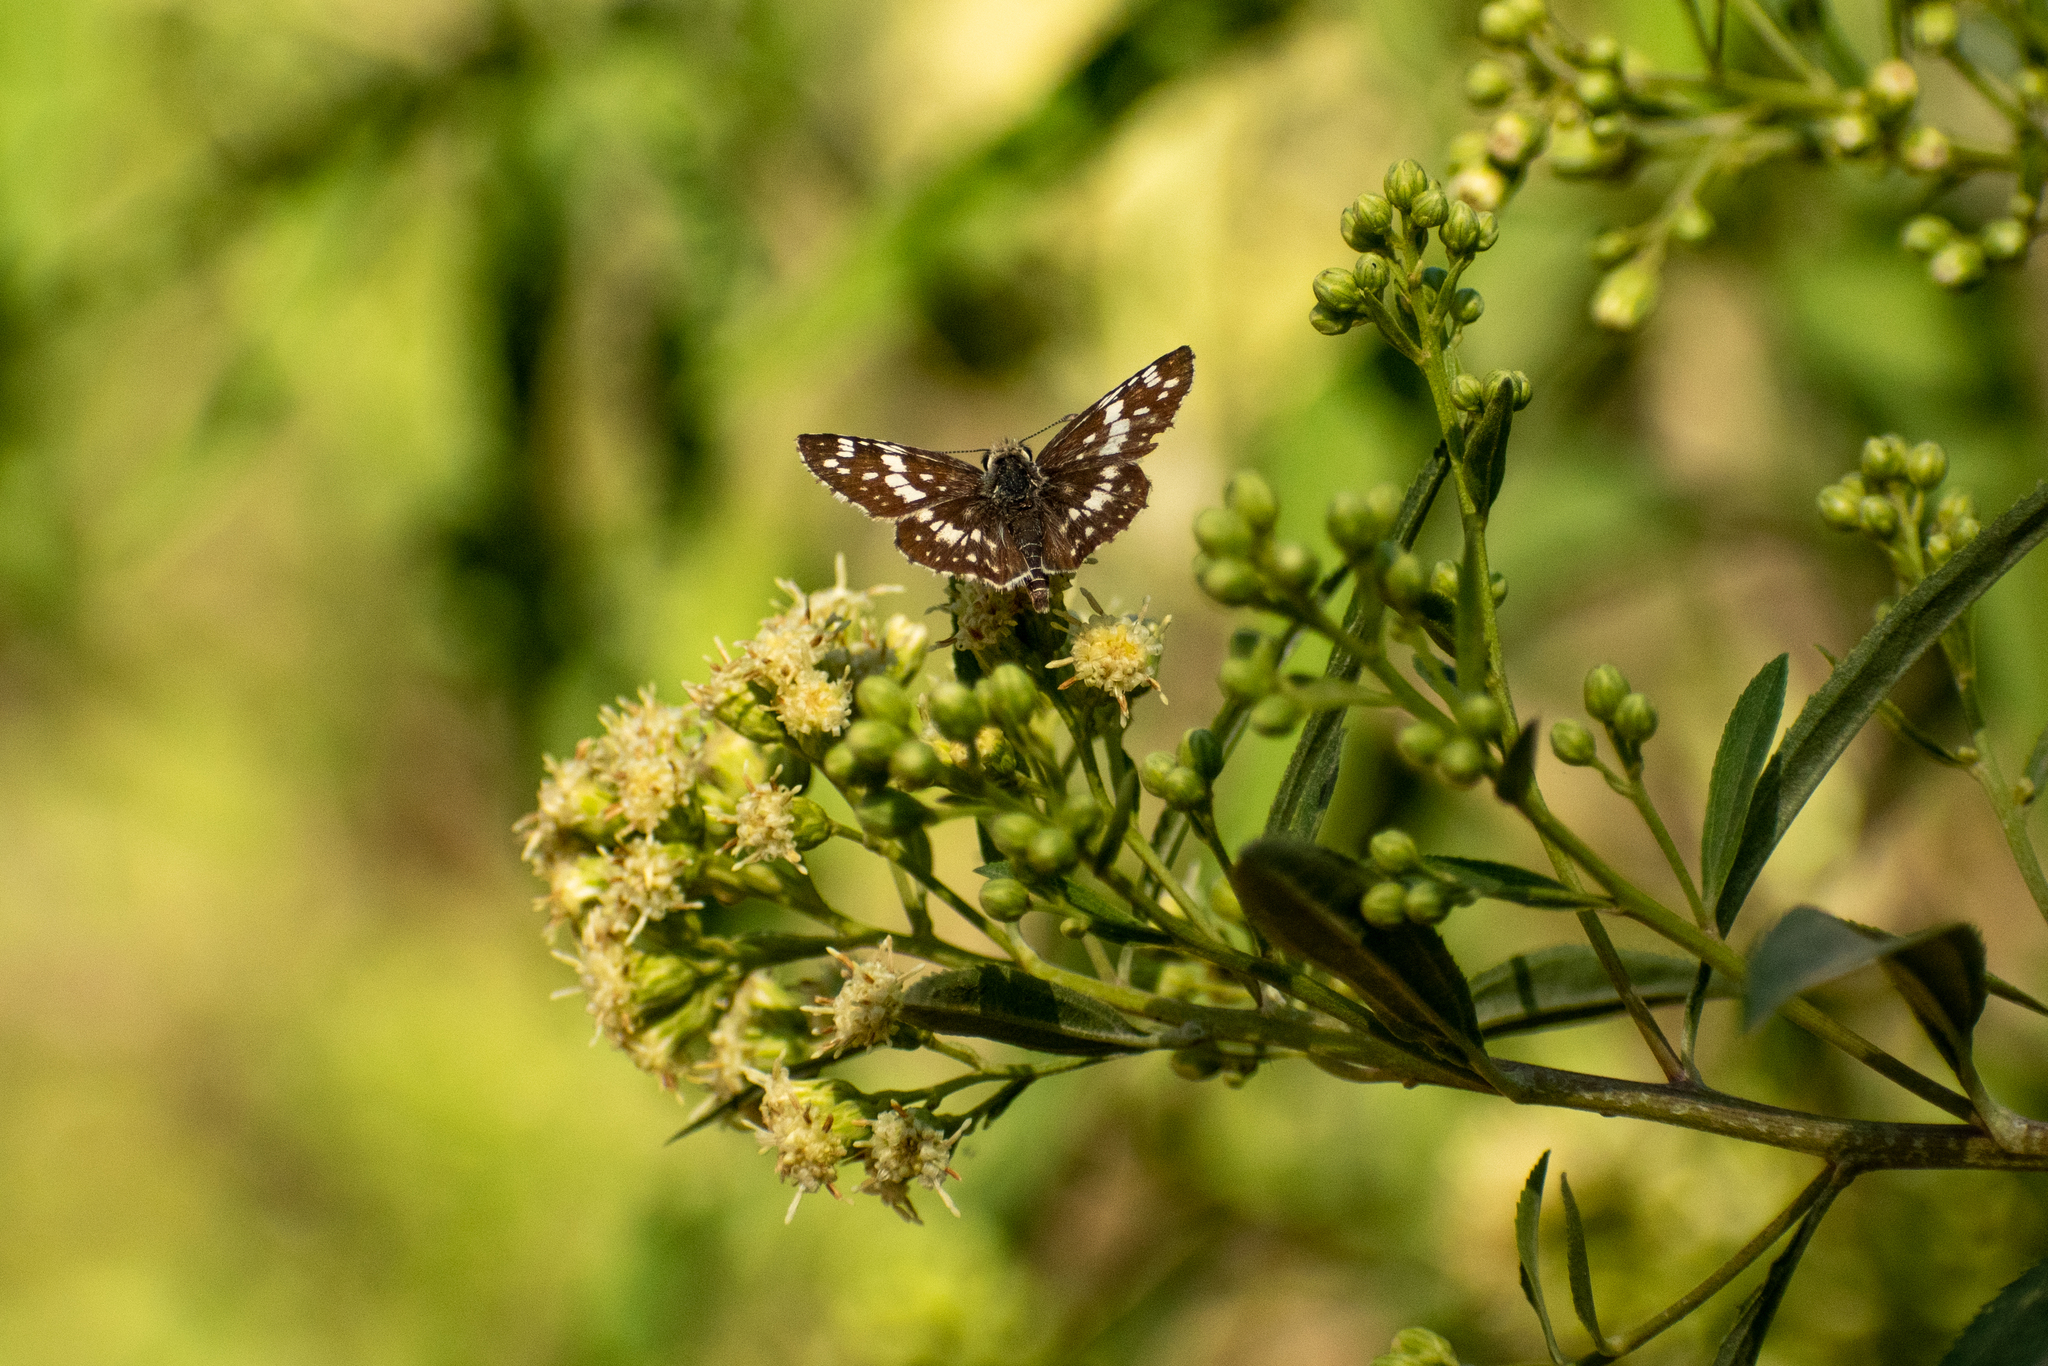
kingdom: Animalia
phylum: Arthropoda
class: Insecta
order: Lepidoptera
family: Hesperiidae
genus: Burnsius
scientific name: Burnsius orcynoides
